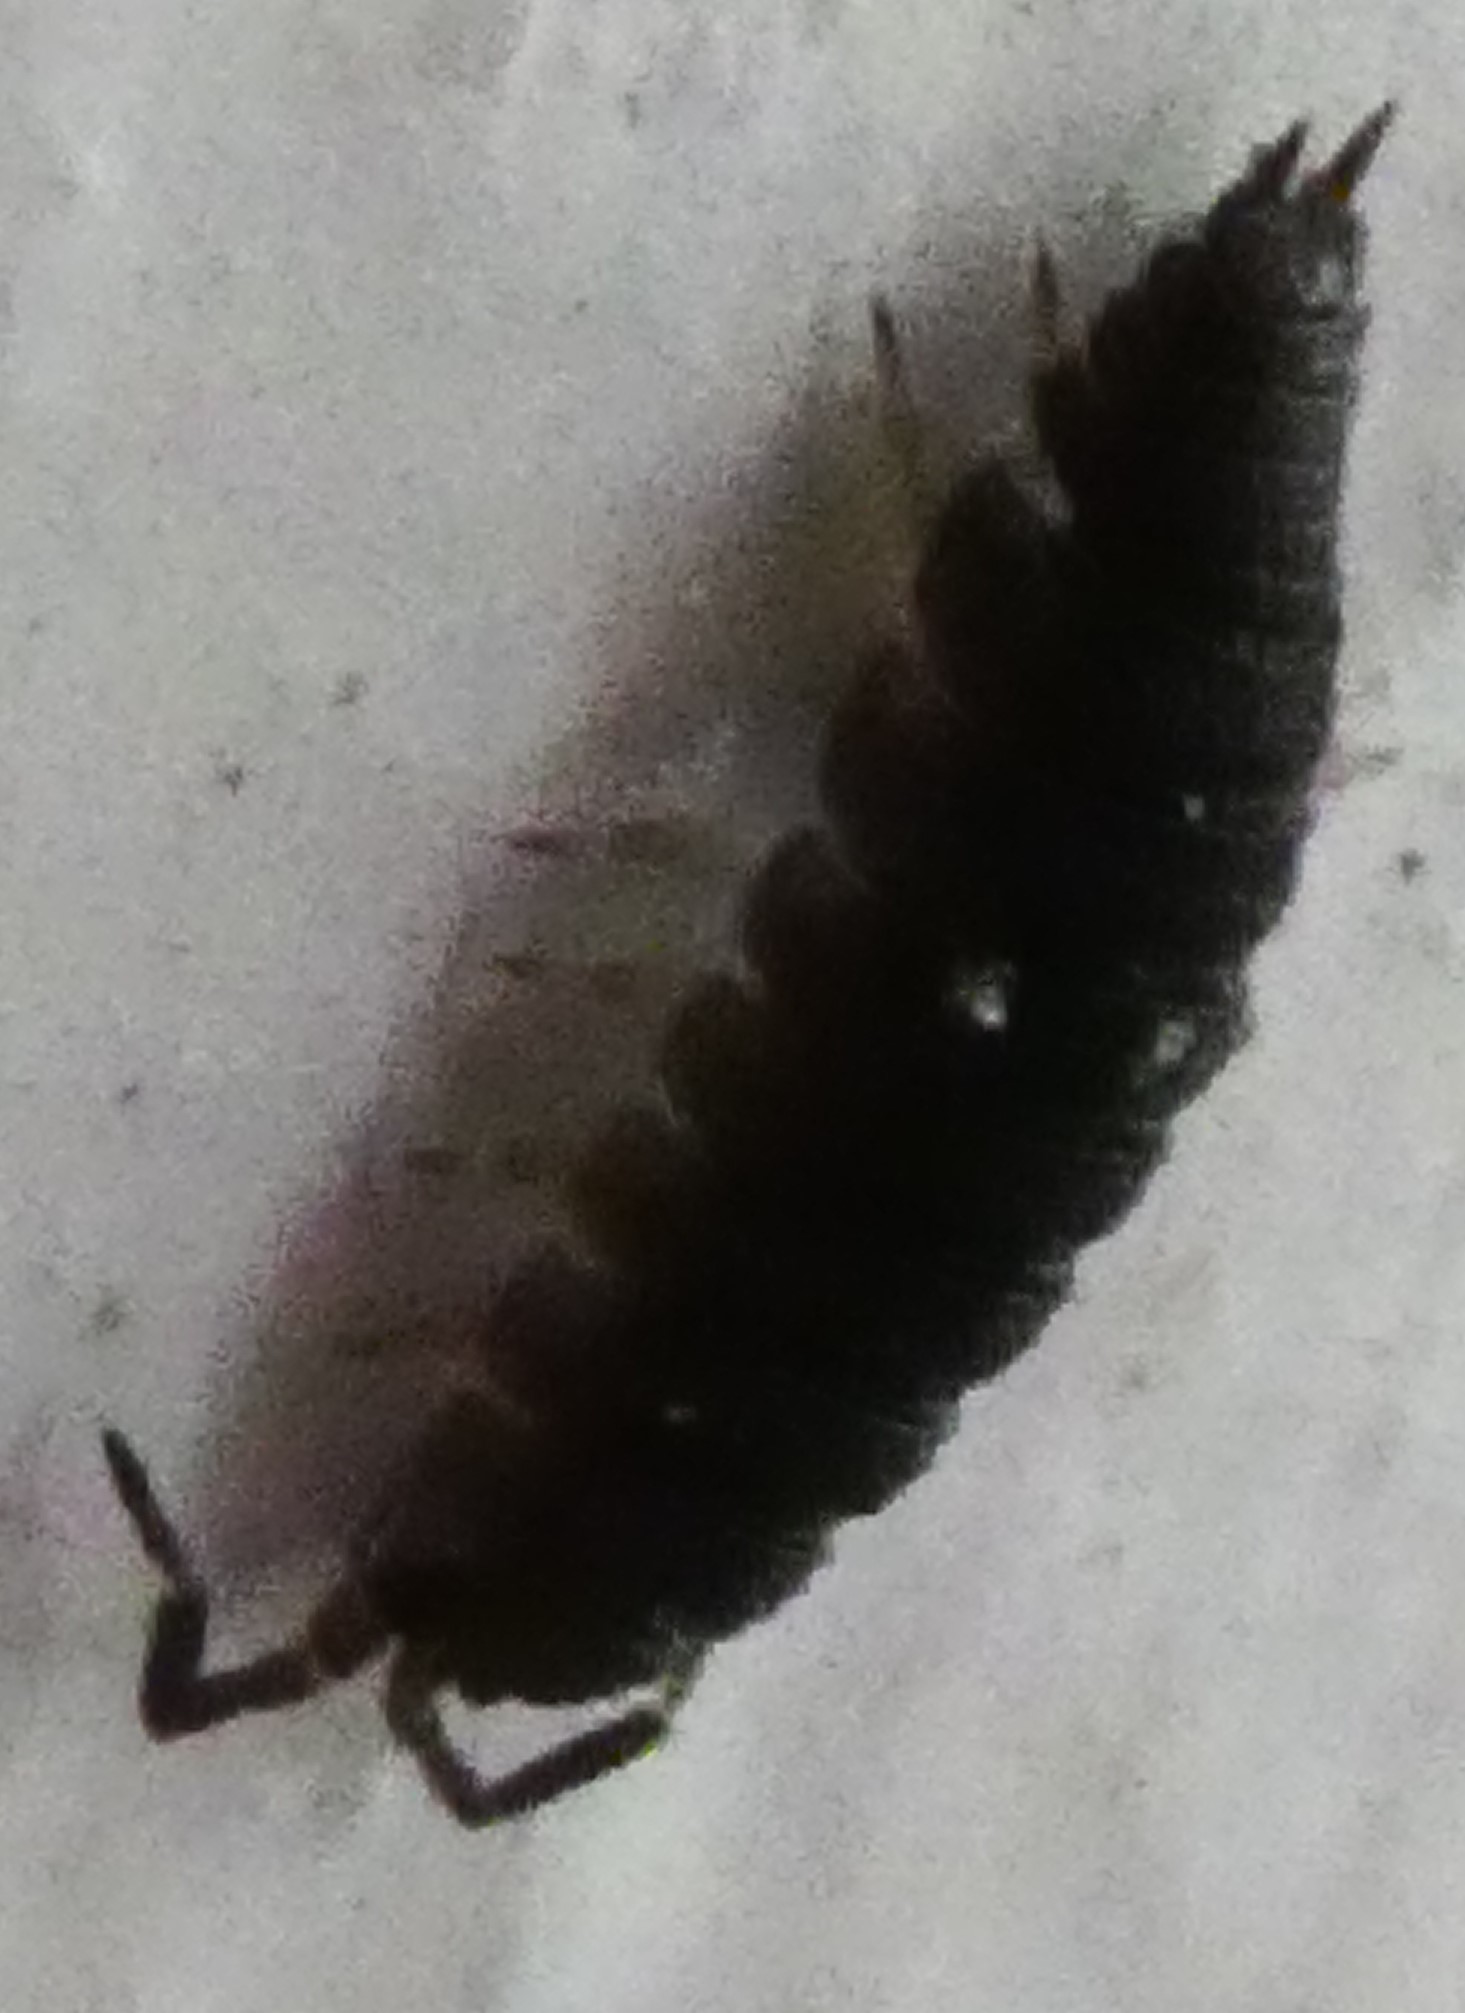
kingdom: Animalia
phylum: Arthropoda
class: Malacostraca
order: Isopoda
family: Porcellionidae
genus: Porcellio
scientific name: Porcellio scaber
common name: Common rough woodlouse
